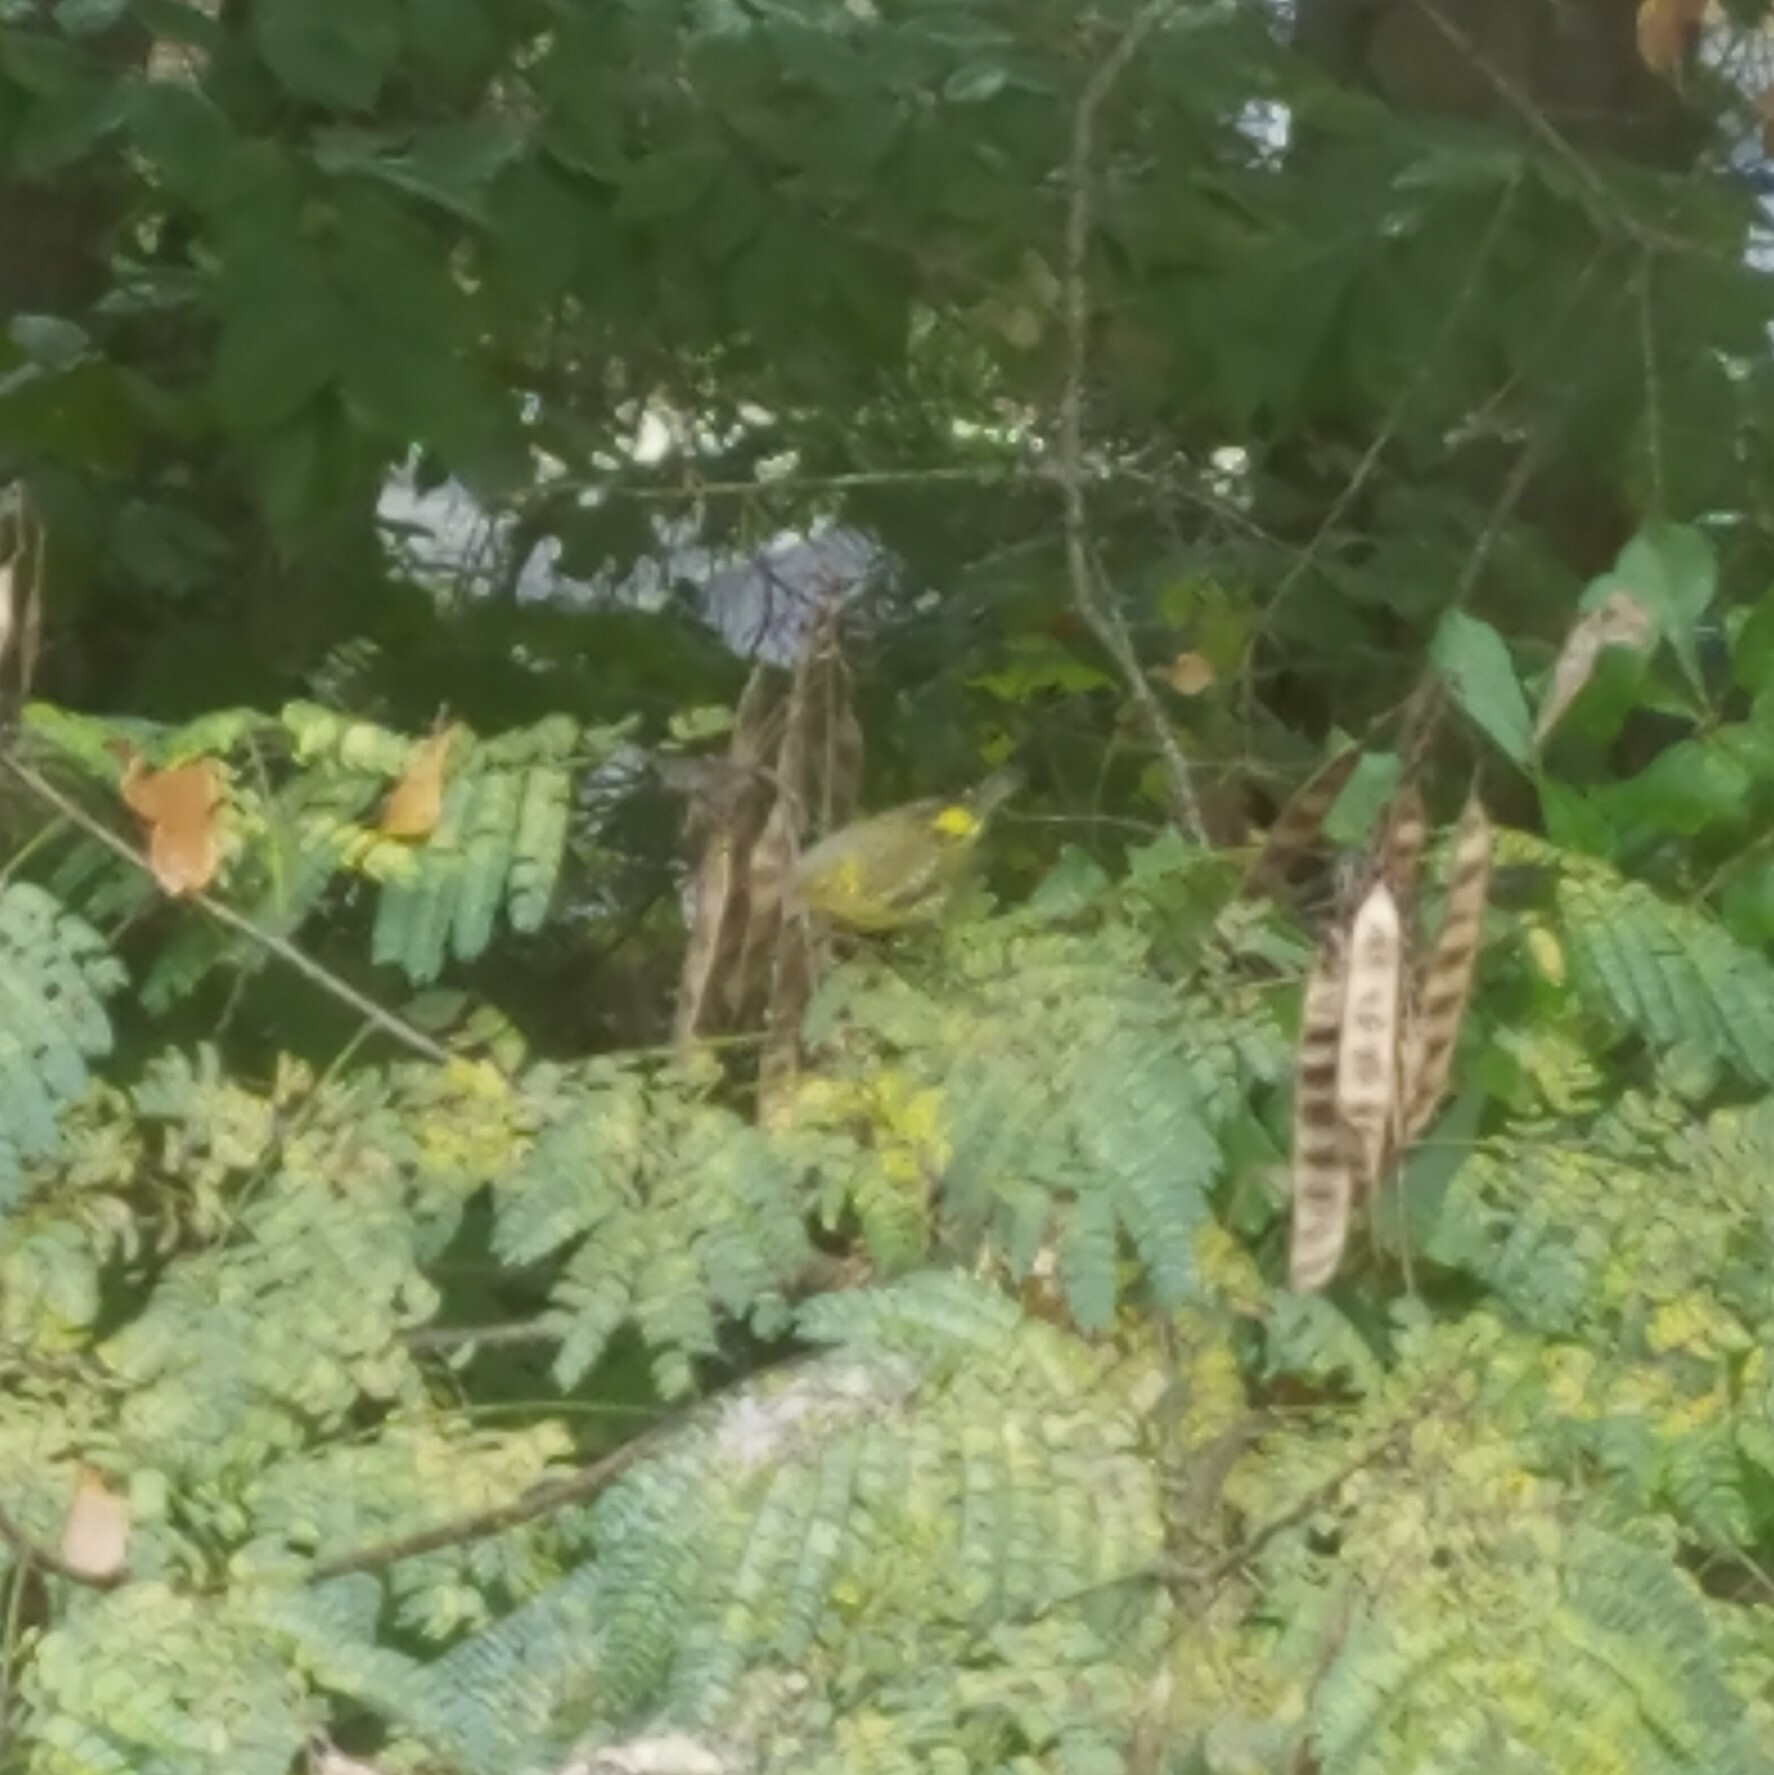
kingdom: Animalia
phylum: Chordata
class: Aves
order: Passeriformes
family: Parulidae
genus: Setophaga
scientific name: Setophaga tigrina
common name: Cape may warbler
